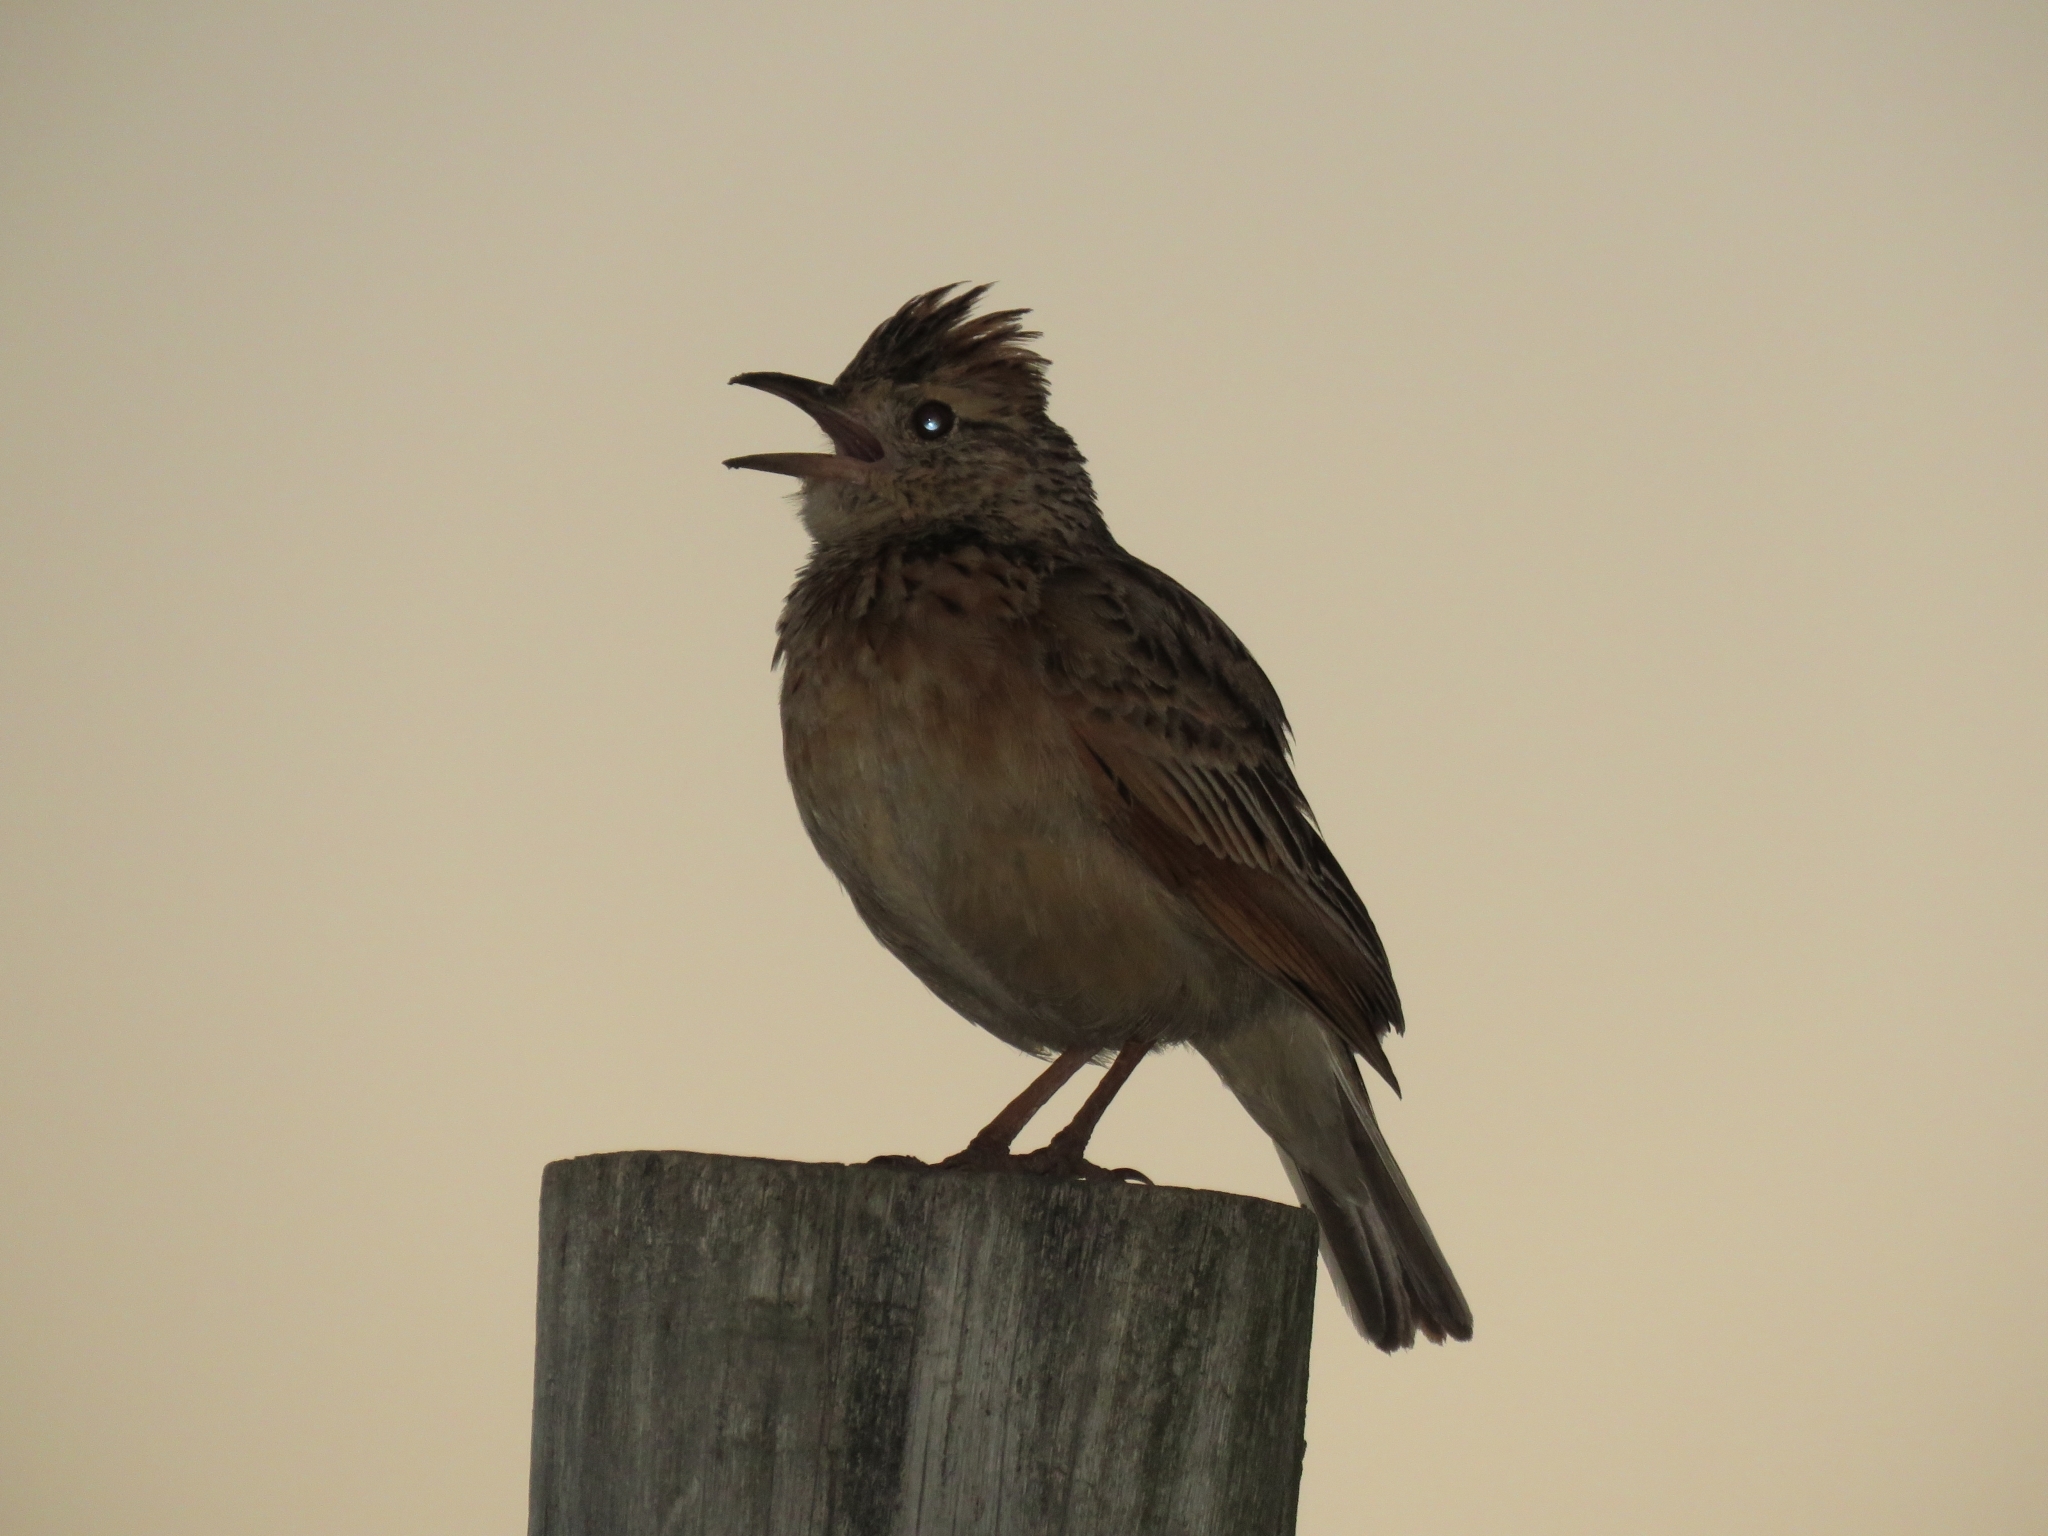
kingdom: Animalia
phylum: Chordata
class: Aves
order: Passeriformes
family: Alaudidae
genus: Mirafra
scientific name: Mirafra africana
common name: Rufous-naped lark
